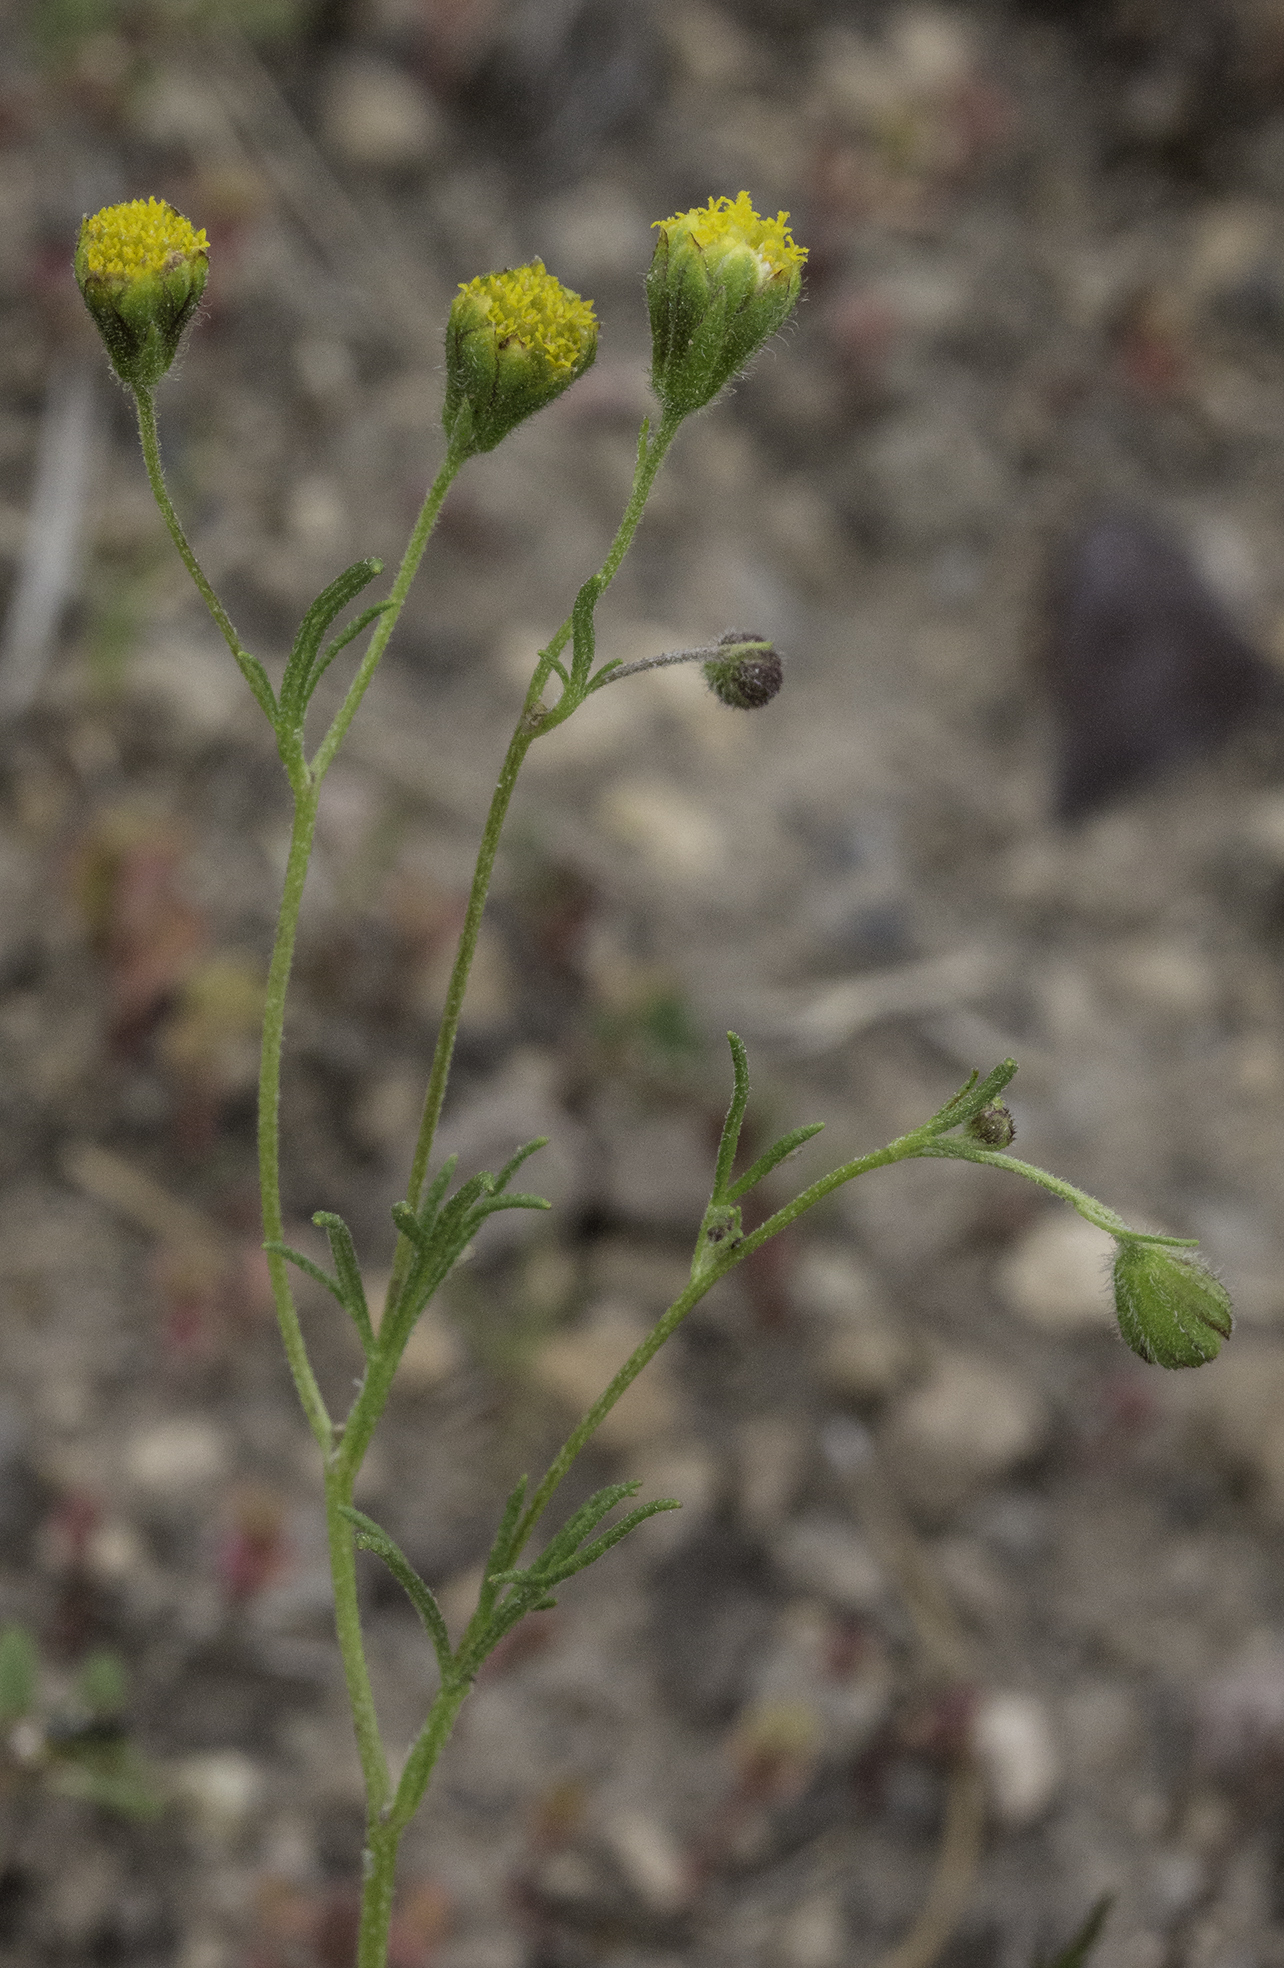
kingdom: Plantae
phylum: Tracheophyta
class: Magnoliopsida
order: Asterales
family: Asteraceae
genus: Picradeniopsis
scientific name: Picradeniopsis multiflora
